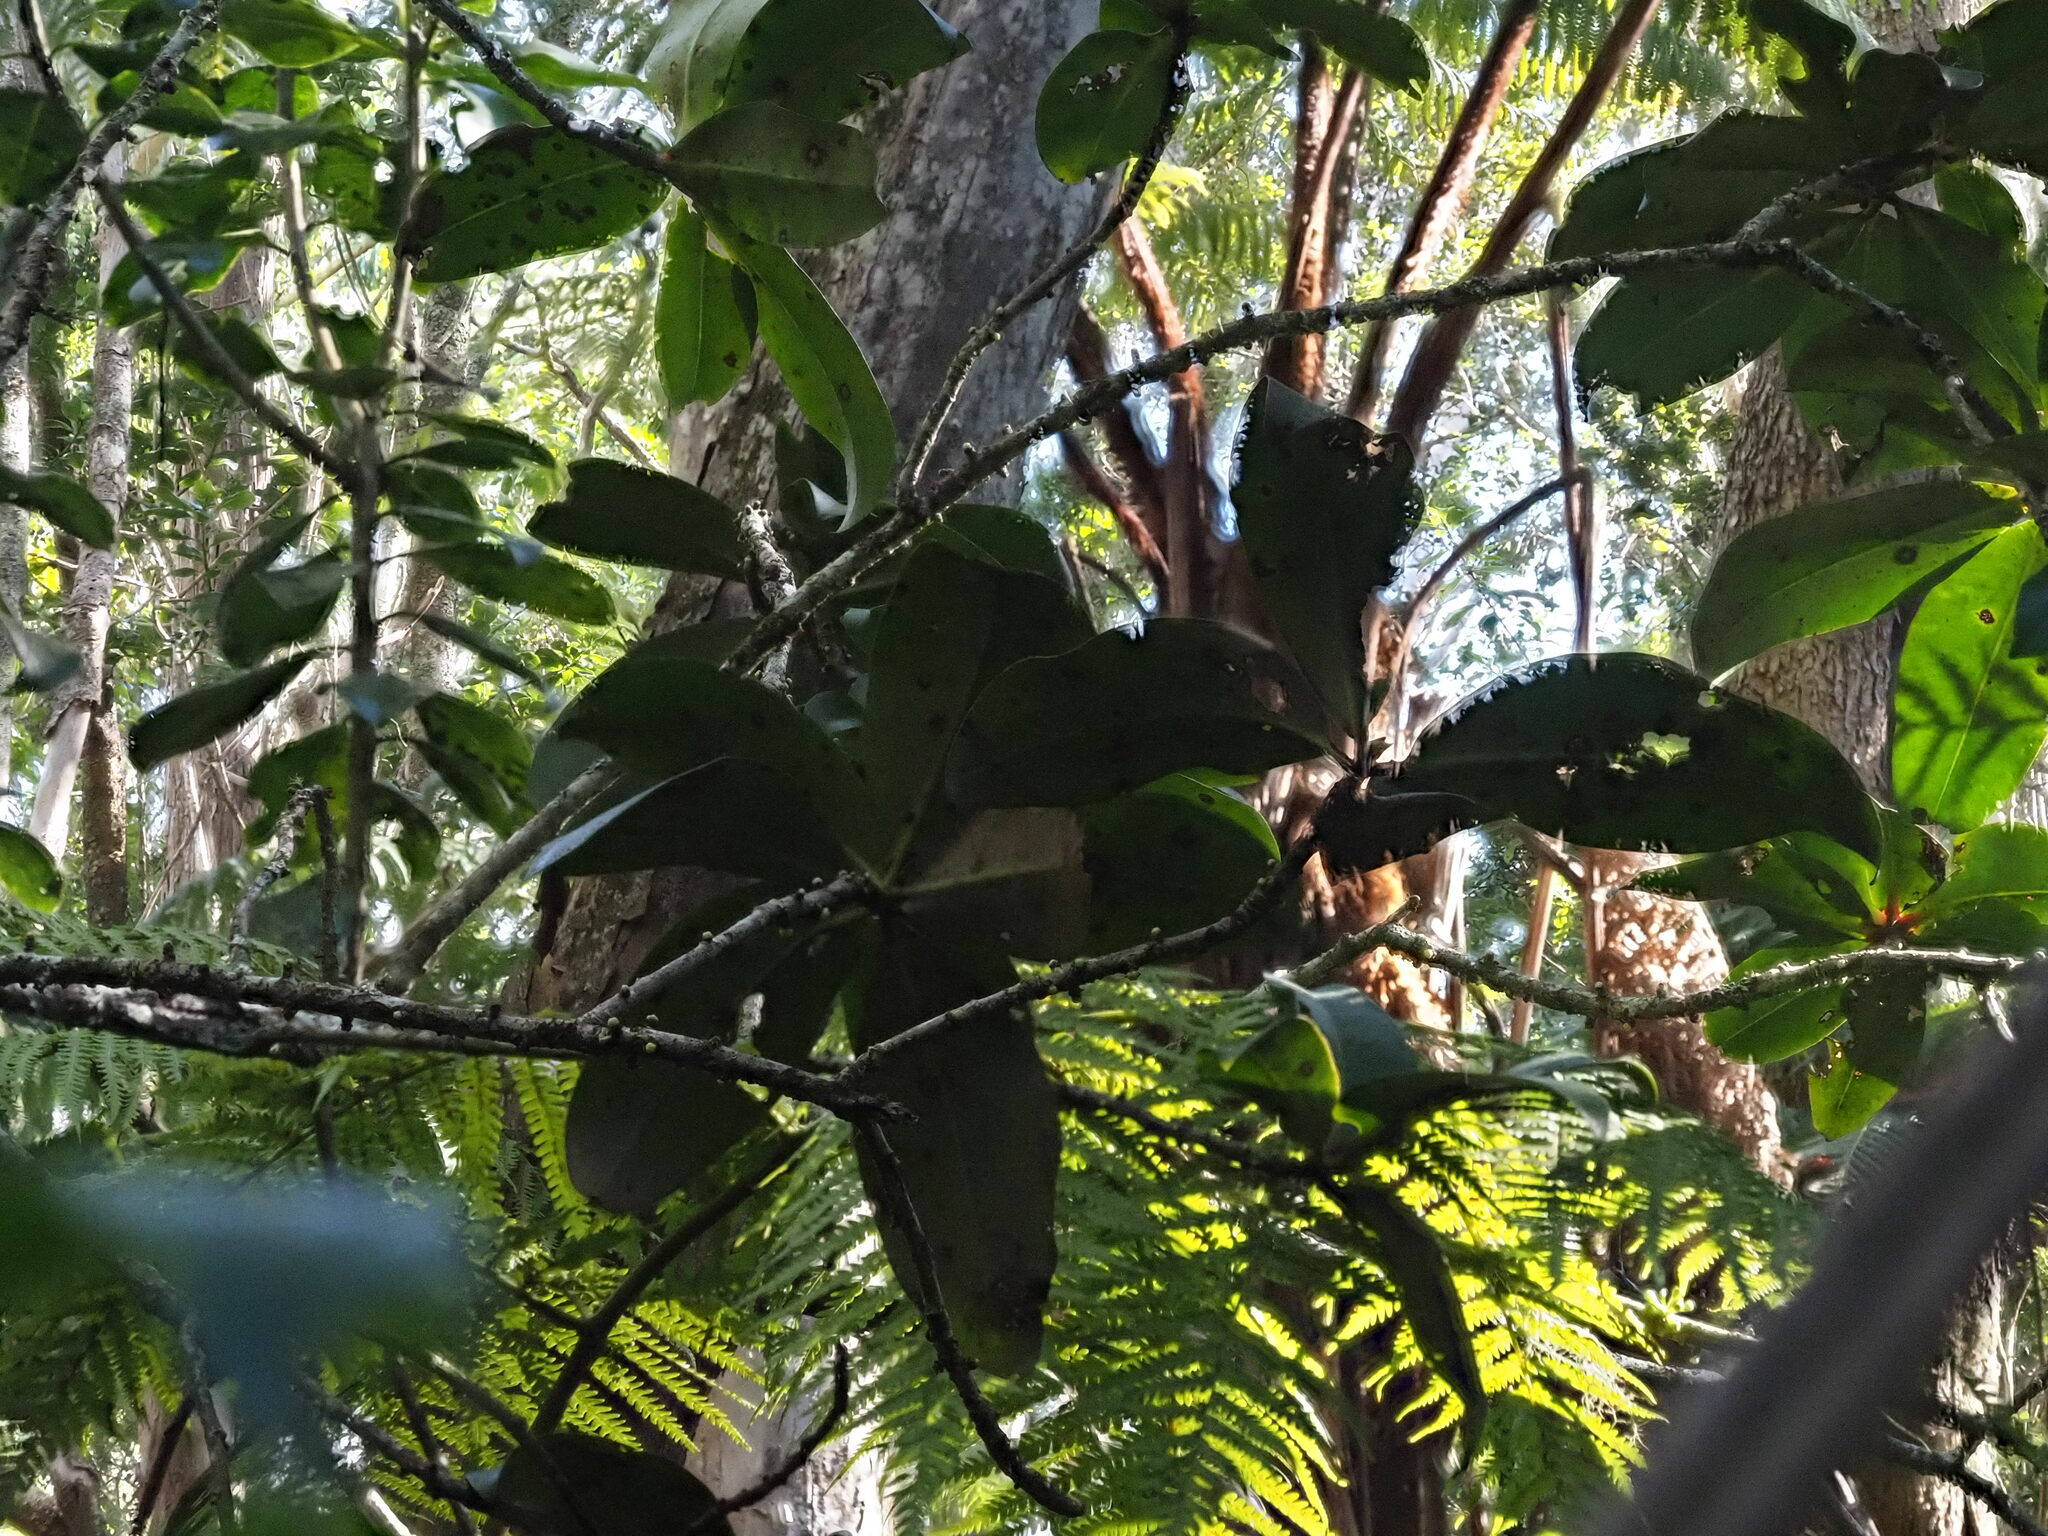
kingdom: Plantae
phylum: Tracheophyta
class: Magnoliopsida
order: Ericales
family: Primulaceae
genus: Myrsine
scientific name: Myrsine lessertiana
